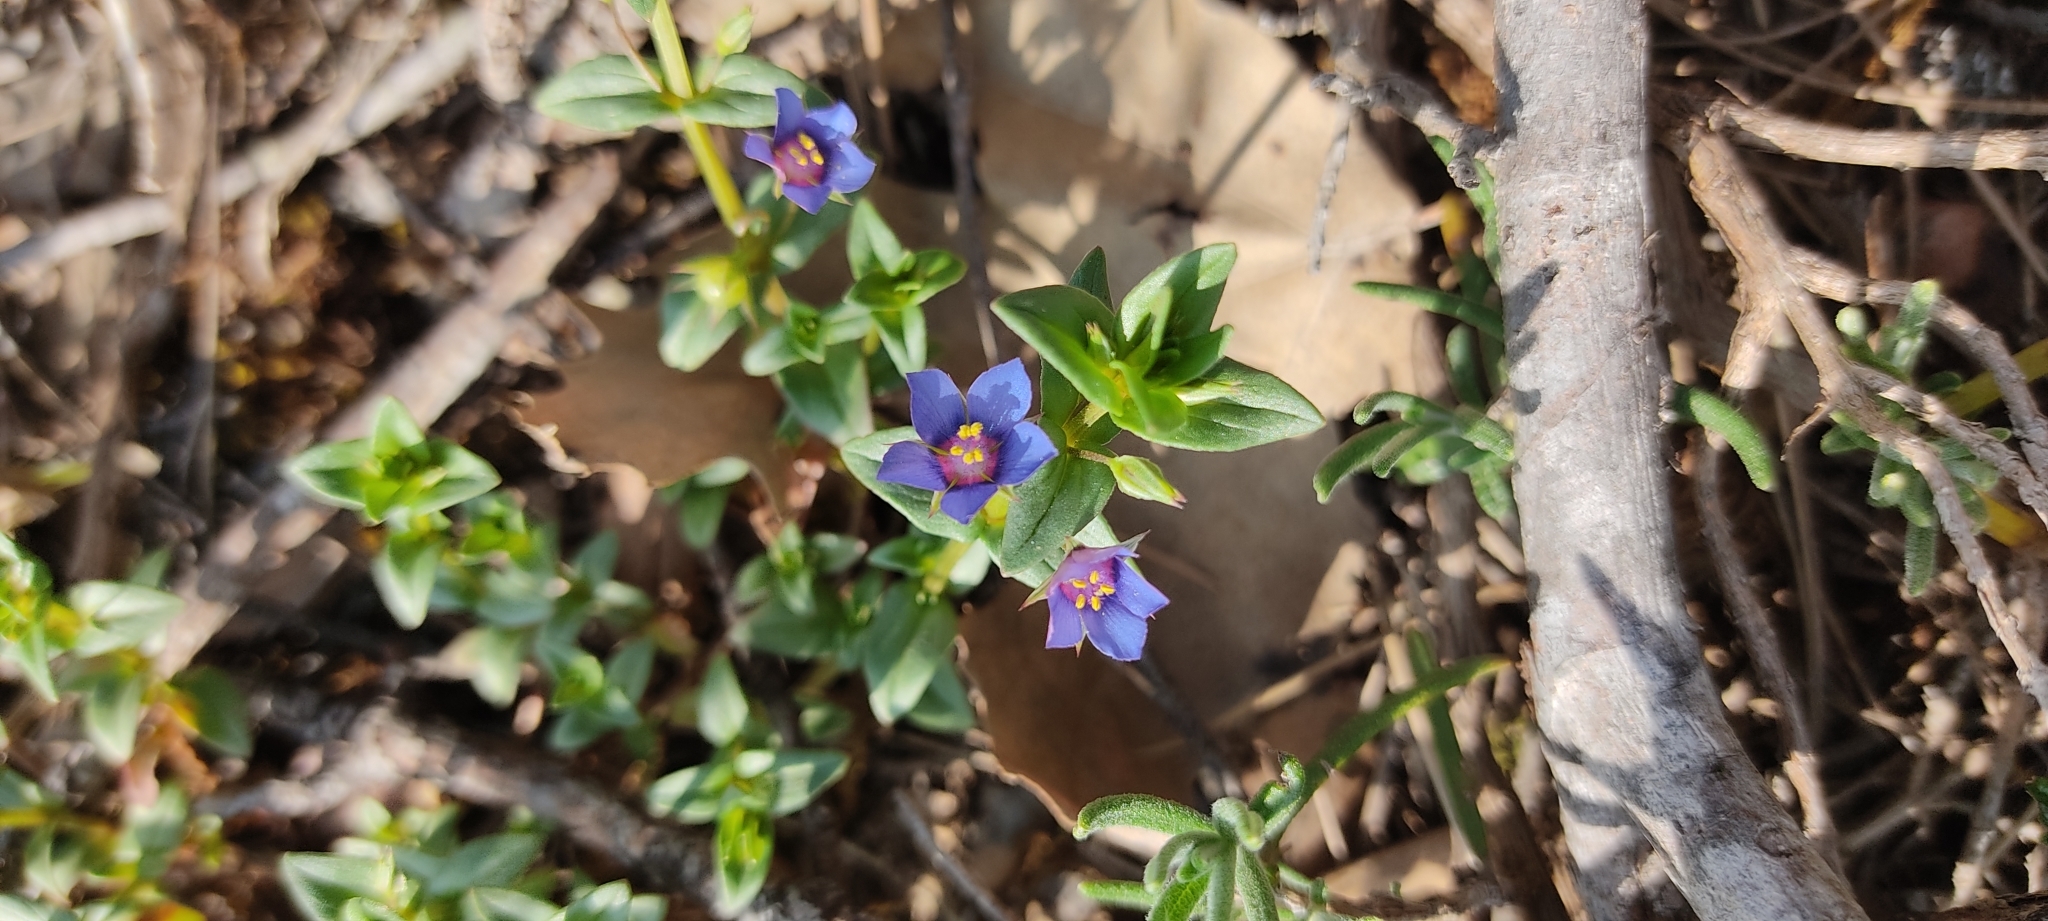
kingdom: Plantae
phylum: Tracheophyta
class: Magnoliopsida
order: Ericales
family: Primulaceae
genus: Lysimachia
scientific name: Lysimachia foemina
